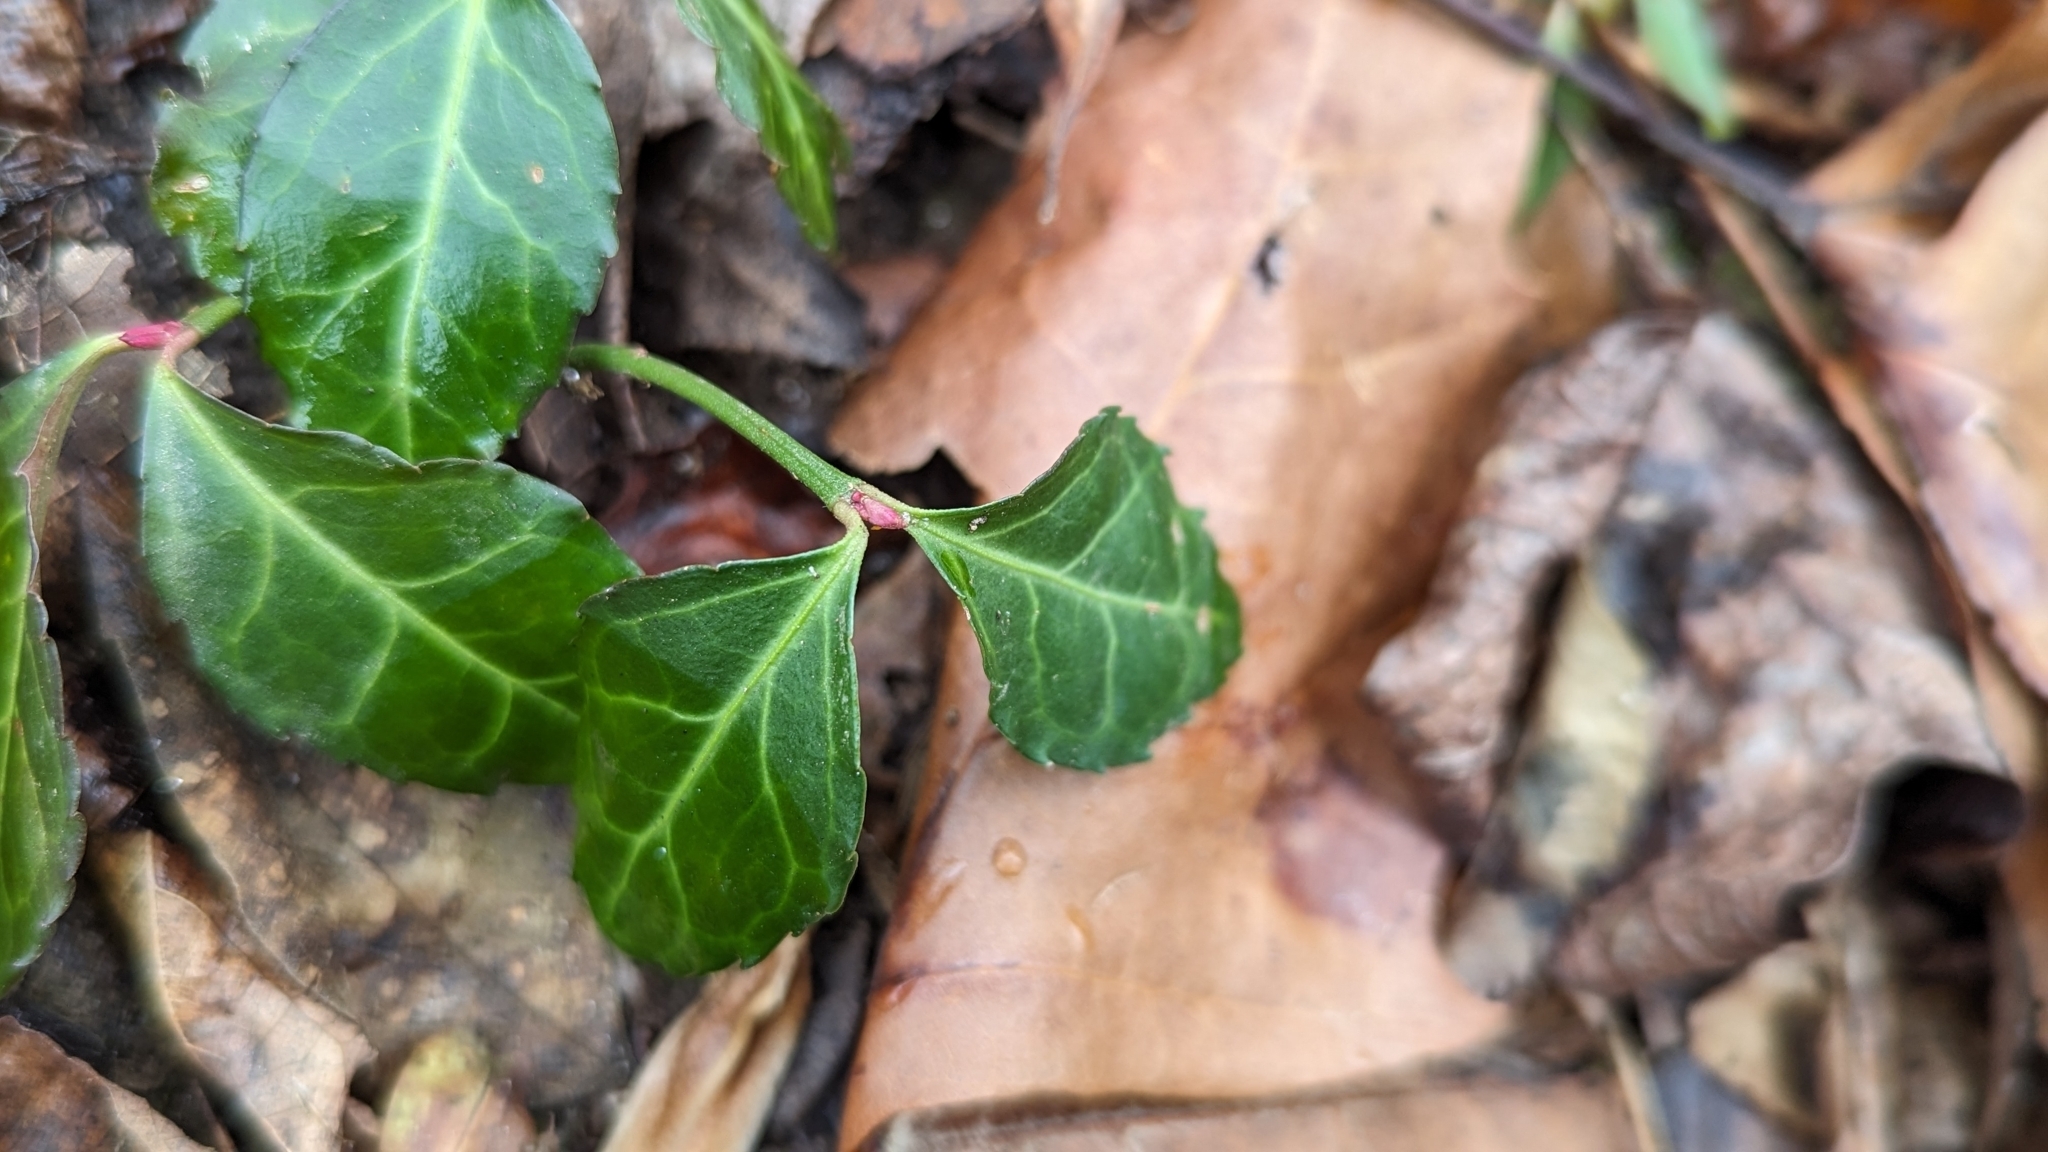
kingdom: Plantae
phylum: Tracheophyta
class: Magnoliopsida
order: Celastrales
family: Celastraceae
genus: Euonymus
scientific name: Euonymus fortunei
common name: Climbing euonymus
